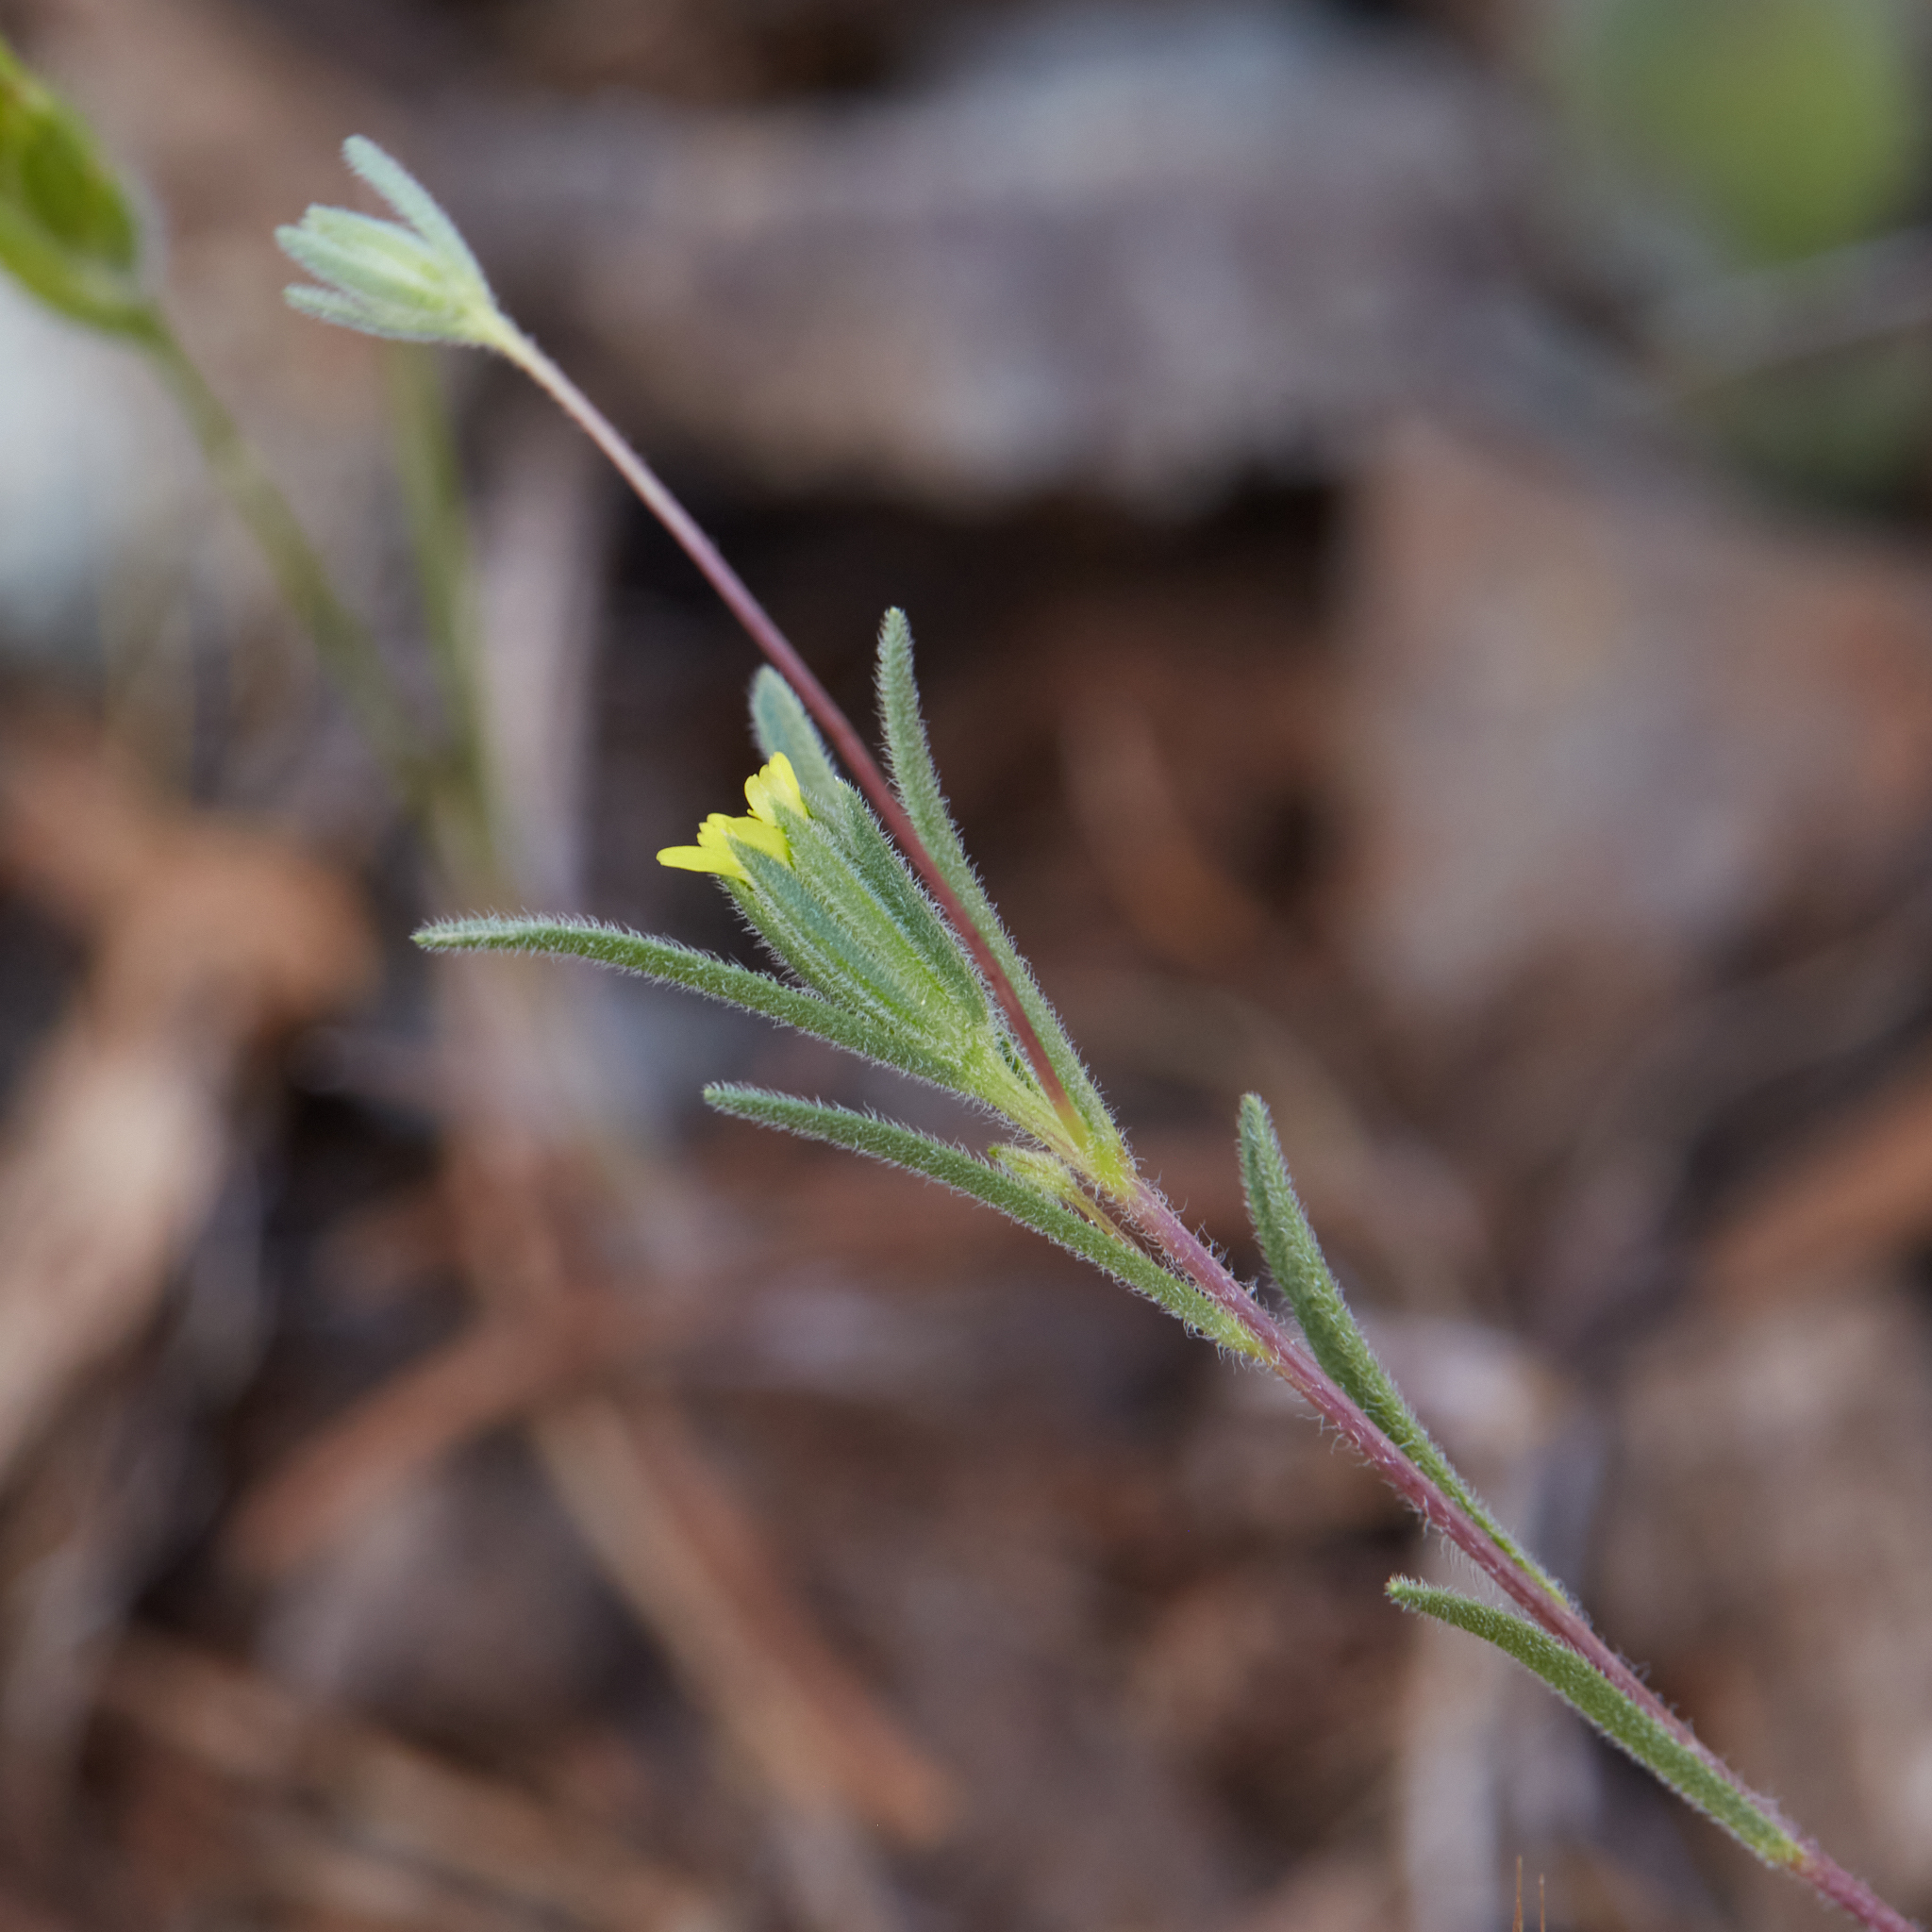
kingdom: Plantae
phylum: Tracheophyta
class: Magnoliopsida
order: Asterales
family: Asteraceae
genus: Rigiopappus
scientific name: Rigiopappus leptocladus
